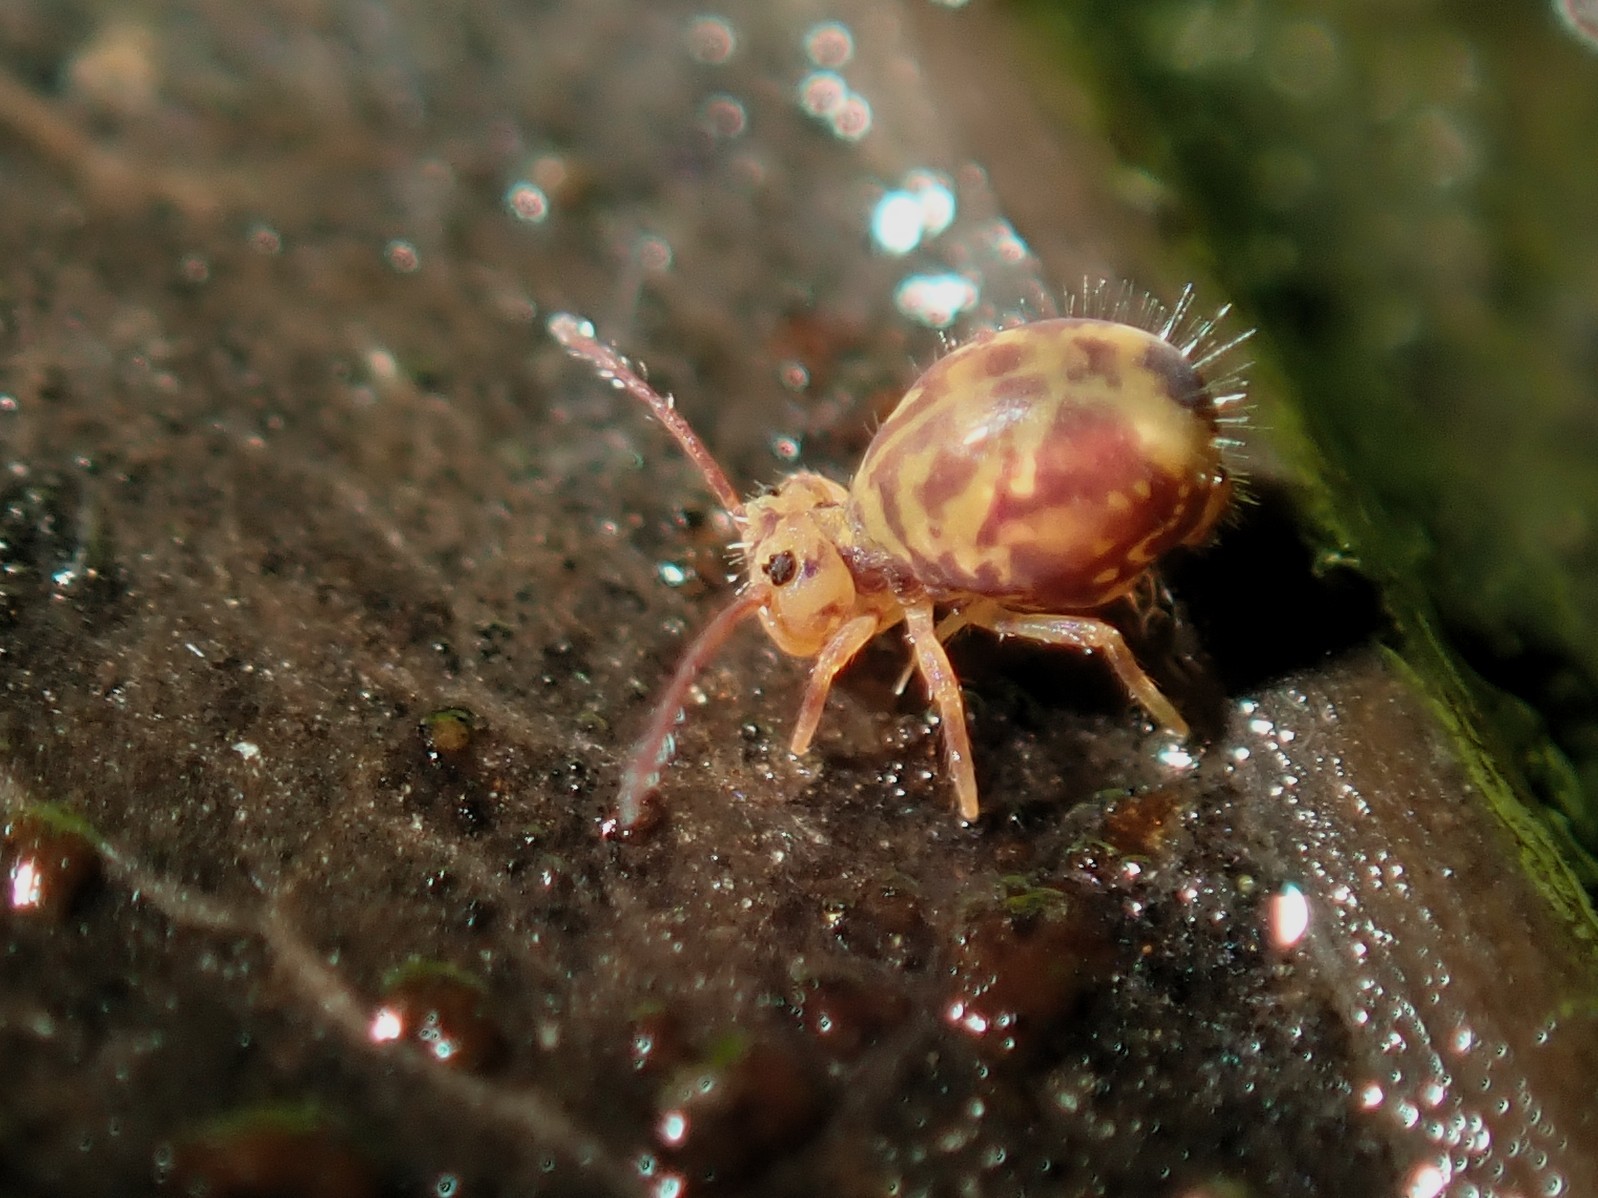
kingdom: Animalia
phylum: Arthropoda
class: Collembola
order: Symphypleona
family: Dicyrtomidae
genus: Dicyrtomina
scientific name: Dicyrtomina ornata
